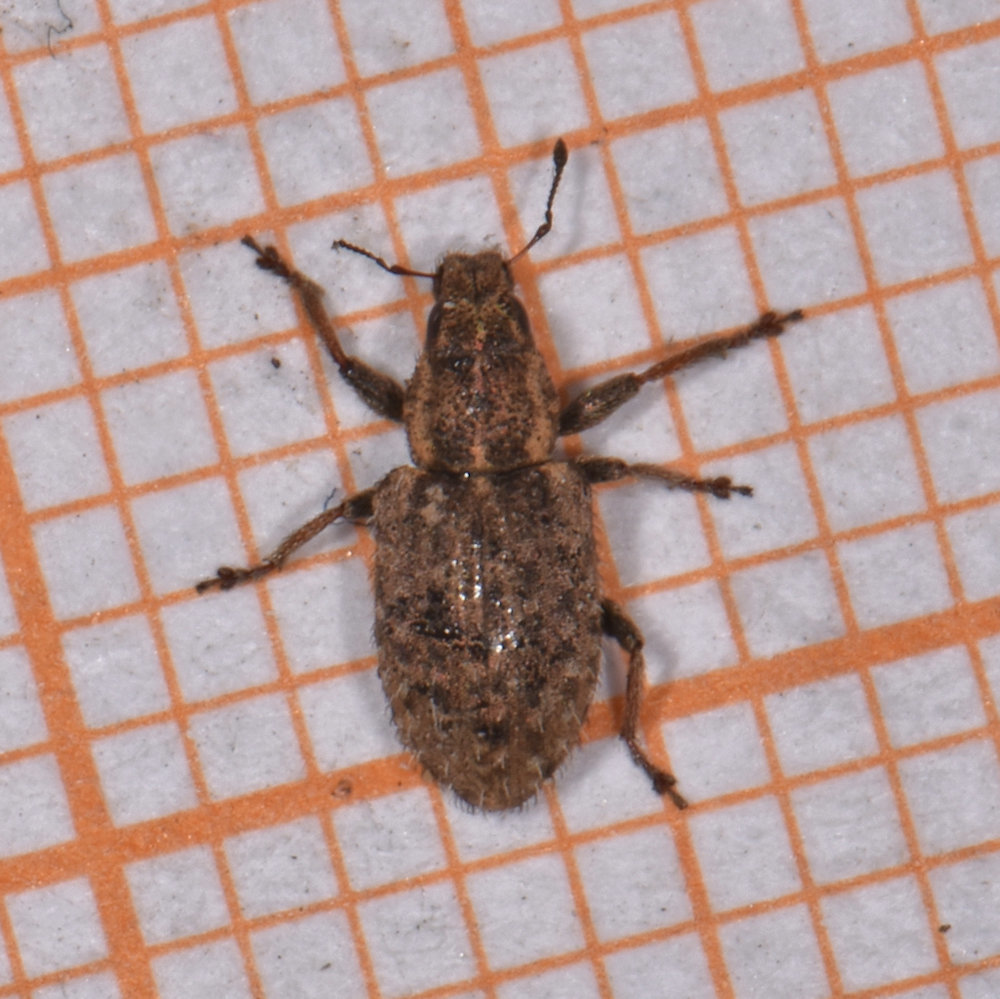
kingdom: Animalia
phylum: Arthropoda
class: Insecta
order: Coleoptera
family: Curculionidae
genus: Sitona
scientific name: Sitona hispidulus
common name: Clover weevil
